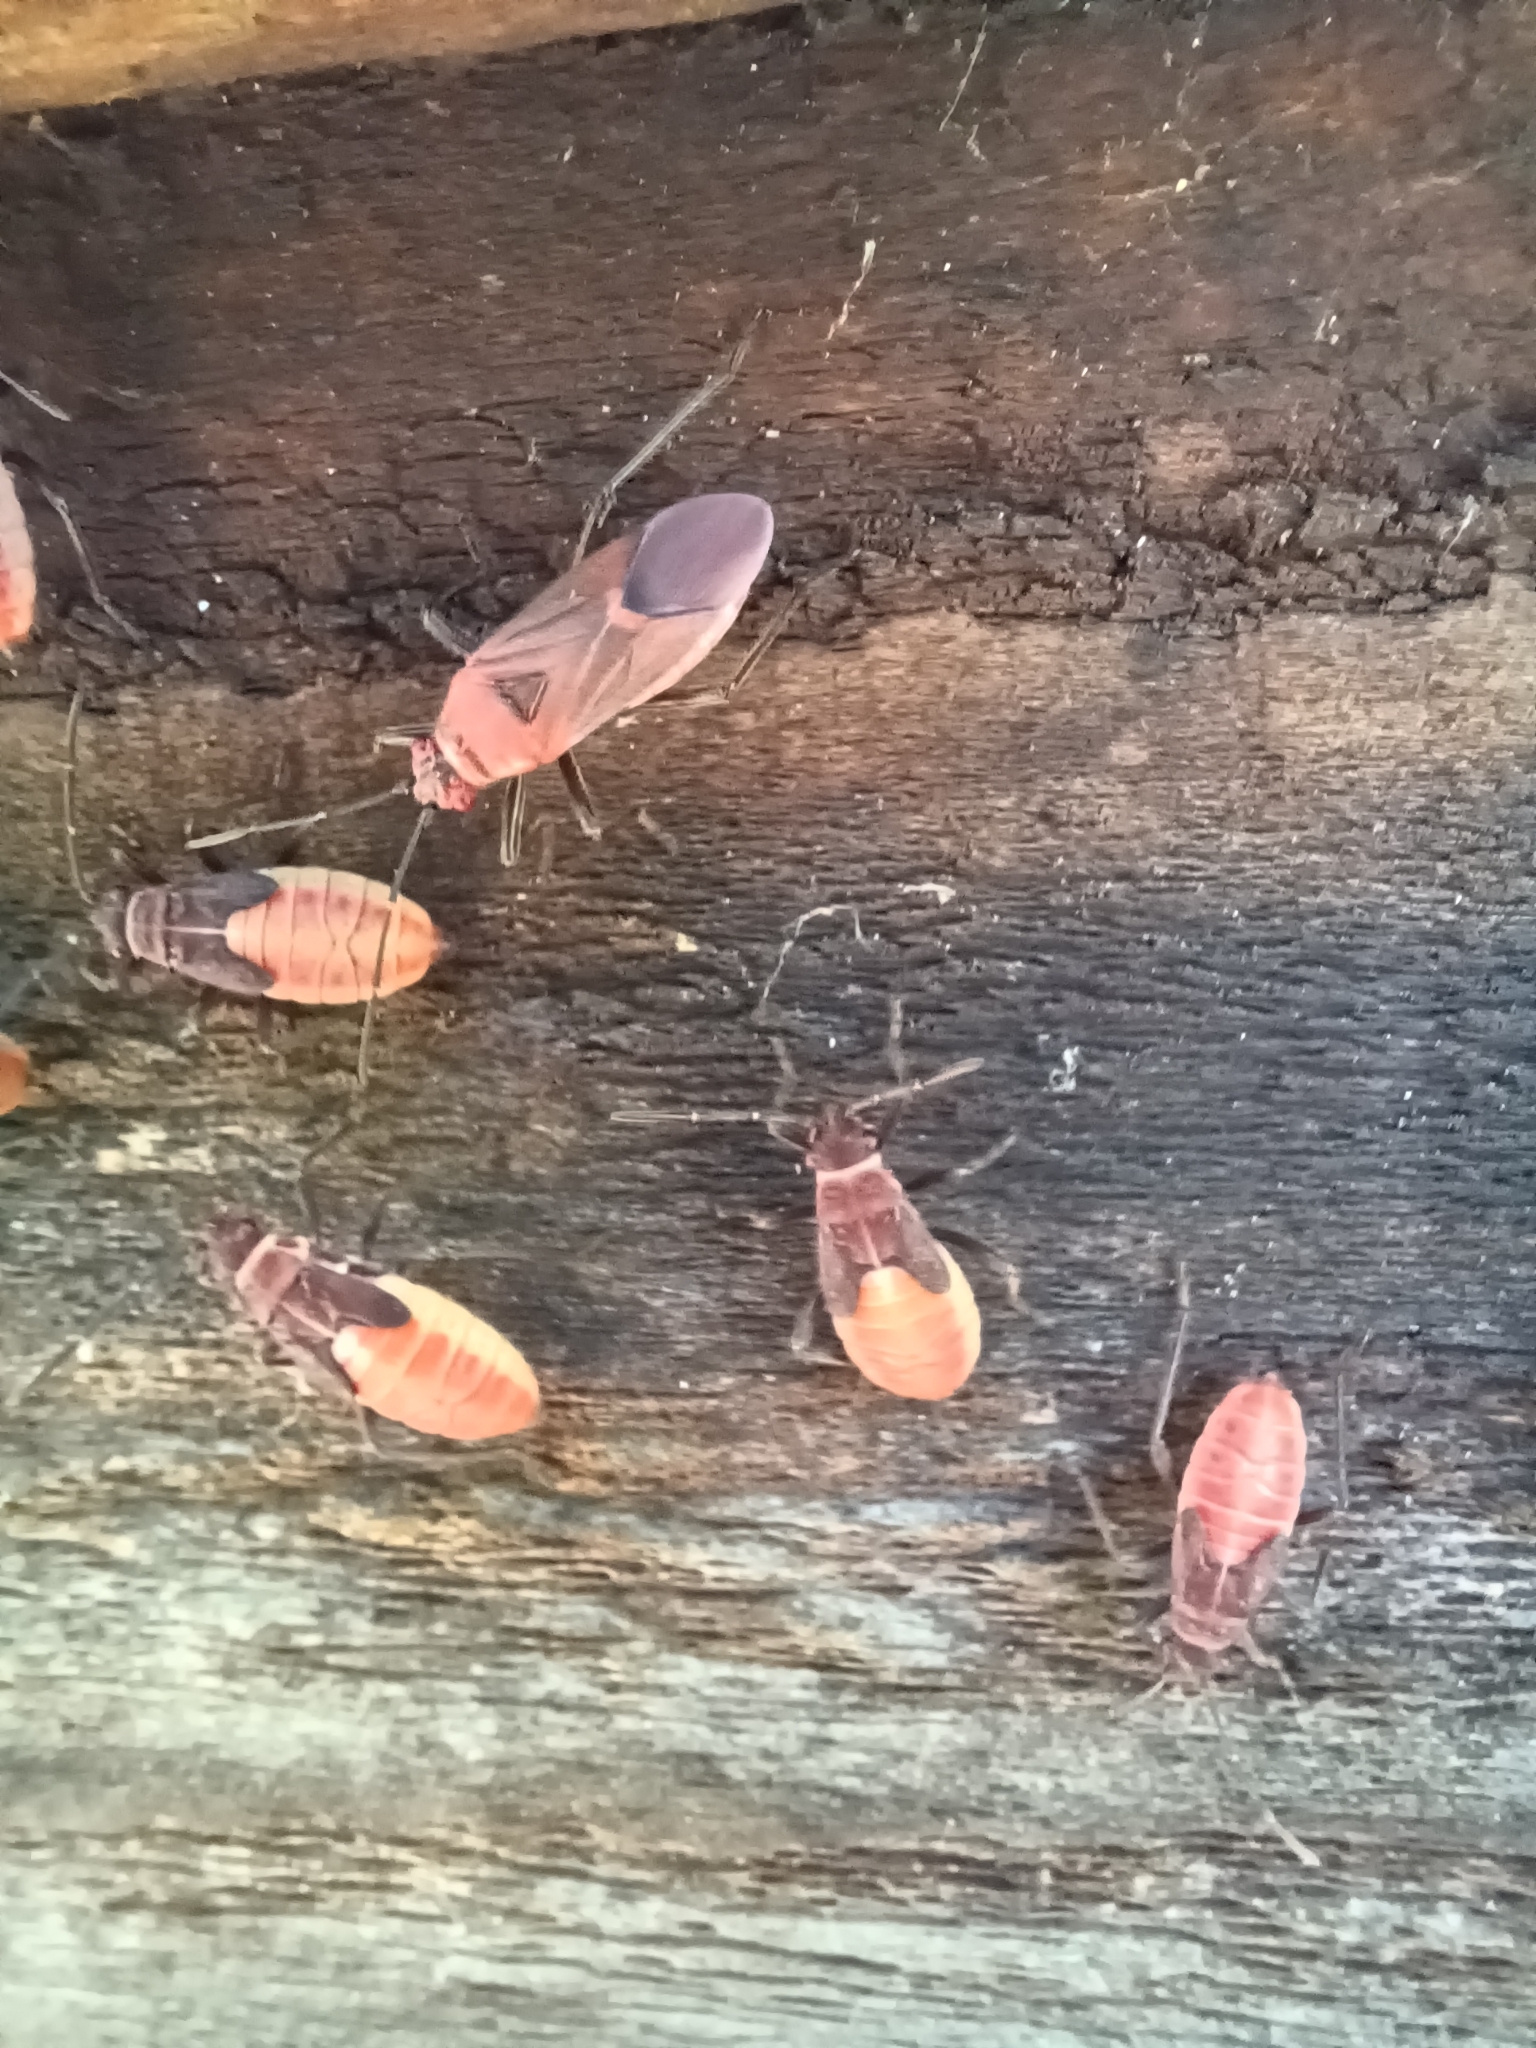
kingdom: Animalia
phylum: Arthropoda
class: Insecta
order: Hemiptera
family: Rhopalidae
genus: Leptocoris
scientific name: Leptocoris mitellatus
